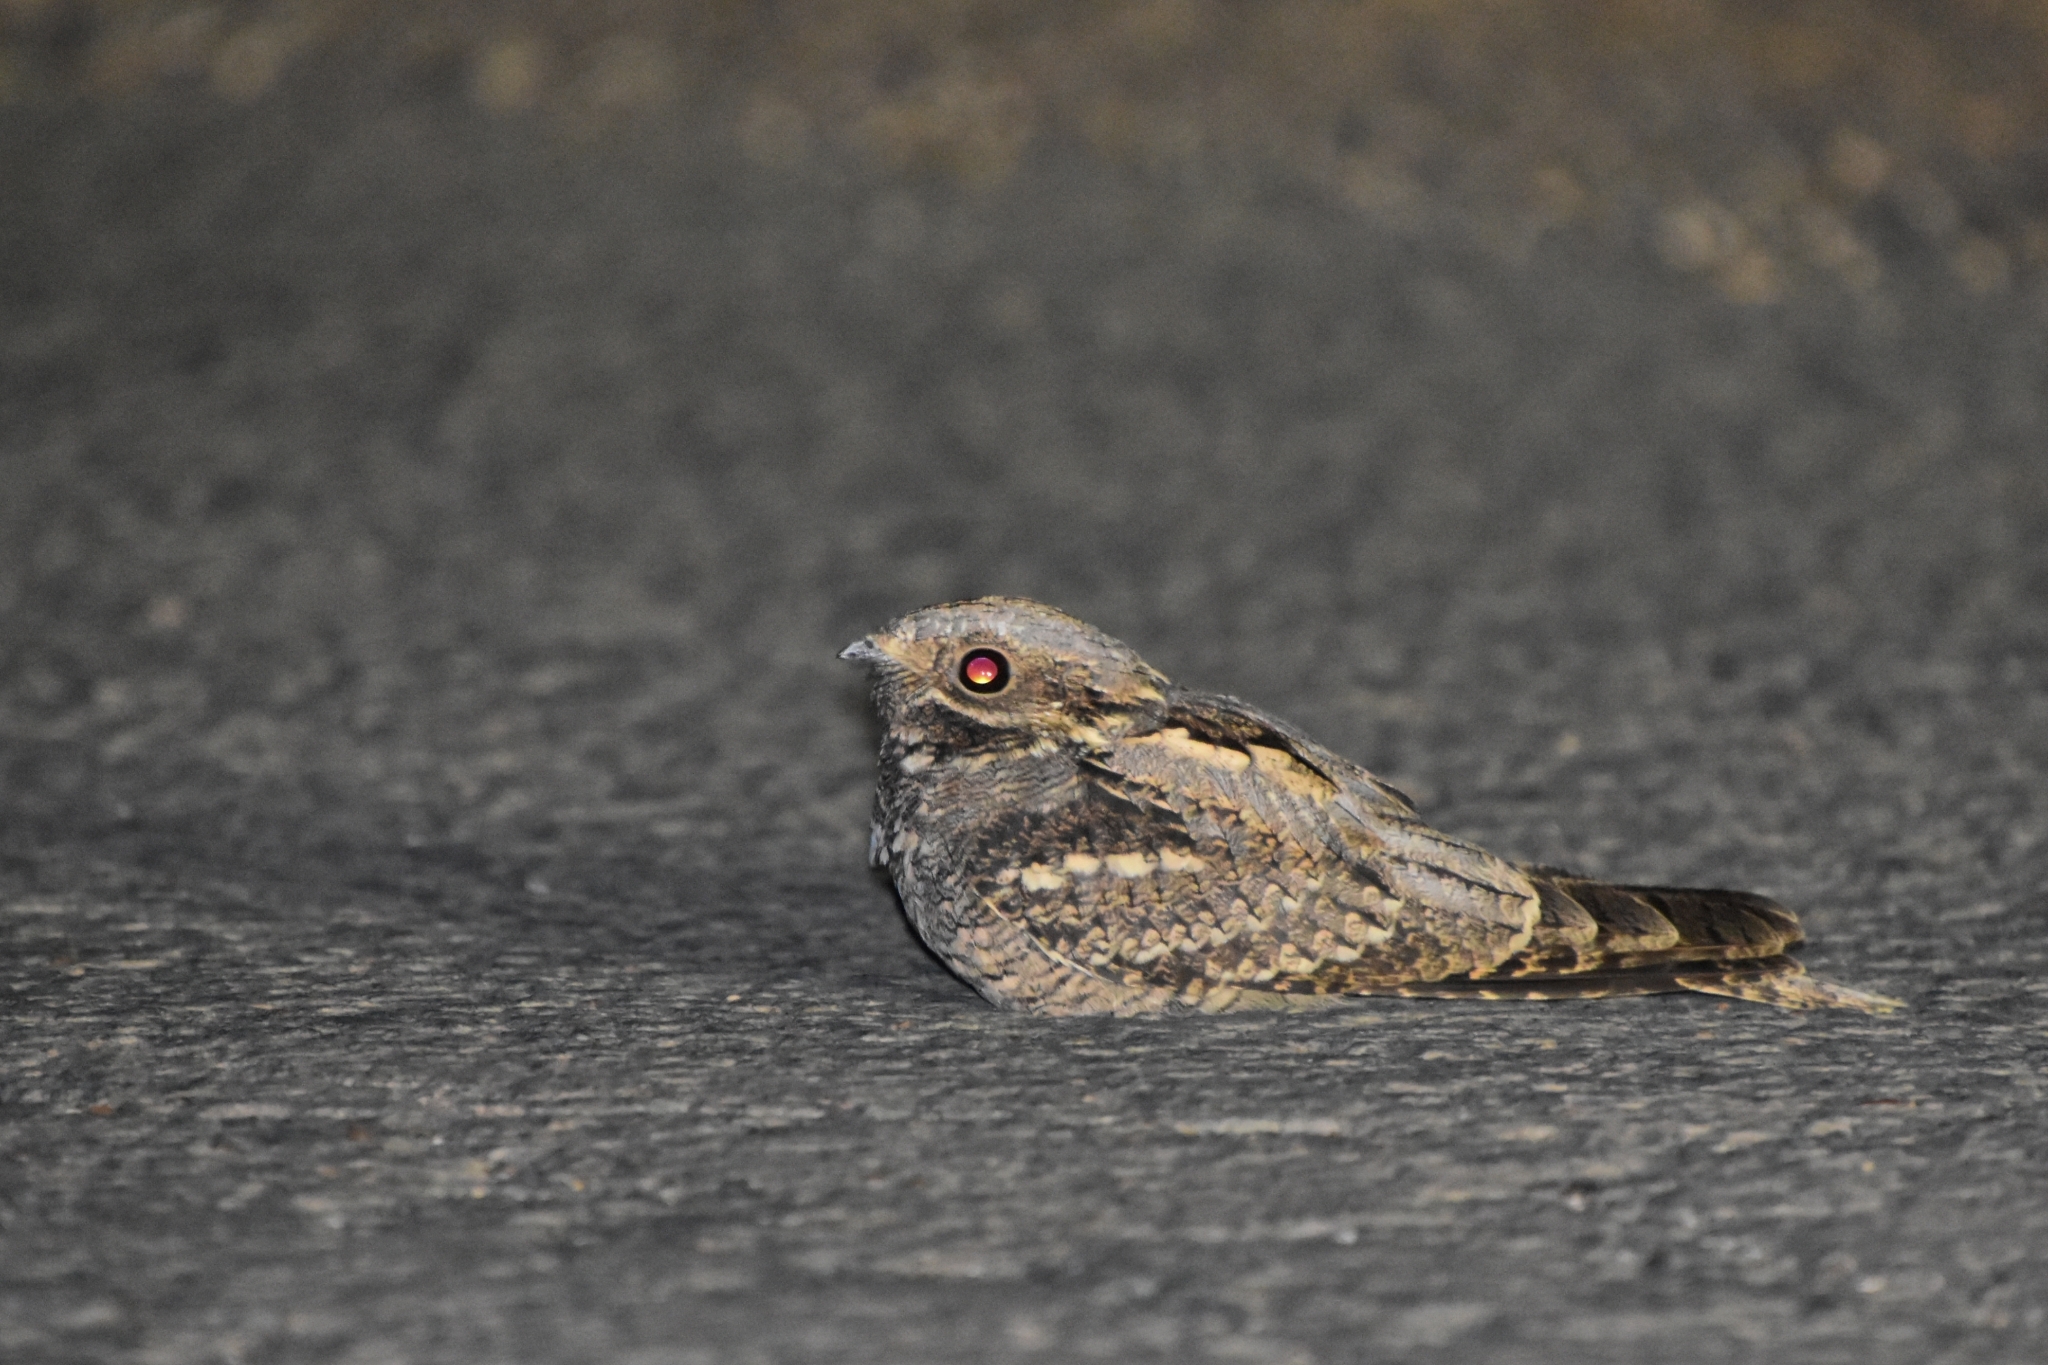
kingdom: Animalia
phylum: Chordata
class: Aves
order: Caprimulgiformes
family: Caprimulgidae
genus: Caprimulgus
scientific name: Caprimulgus europaeus
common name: European nightjar
